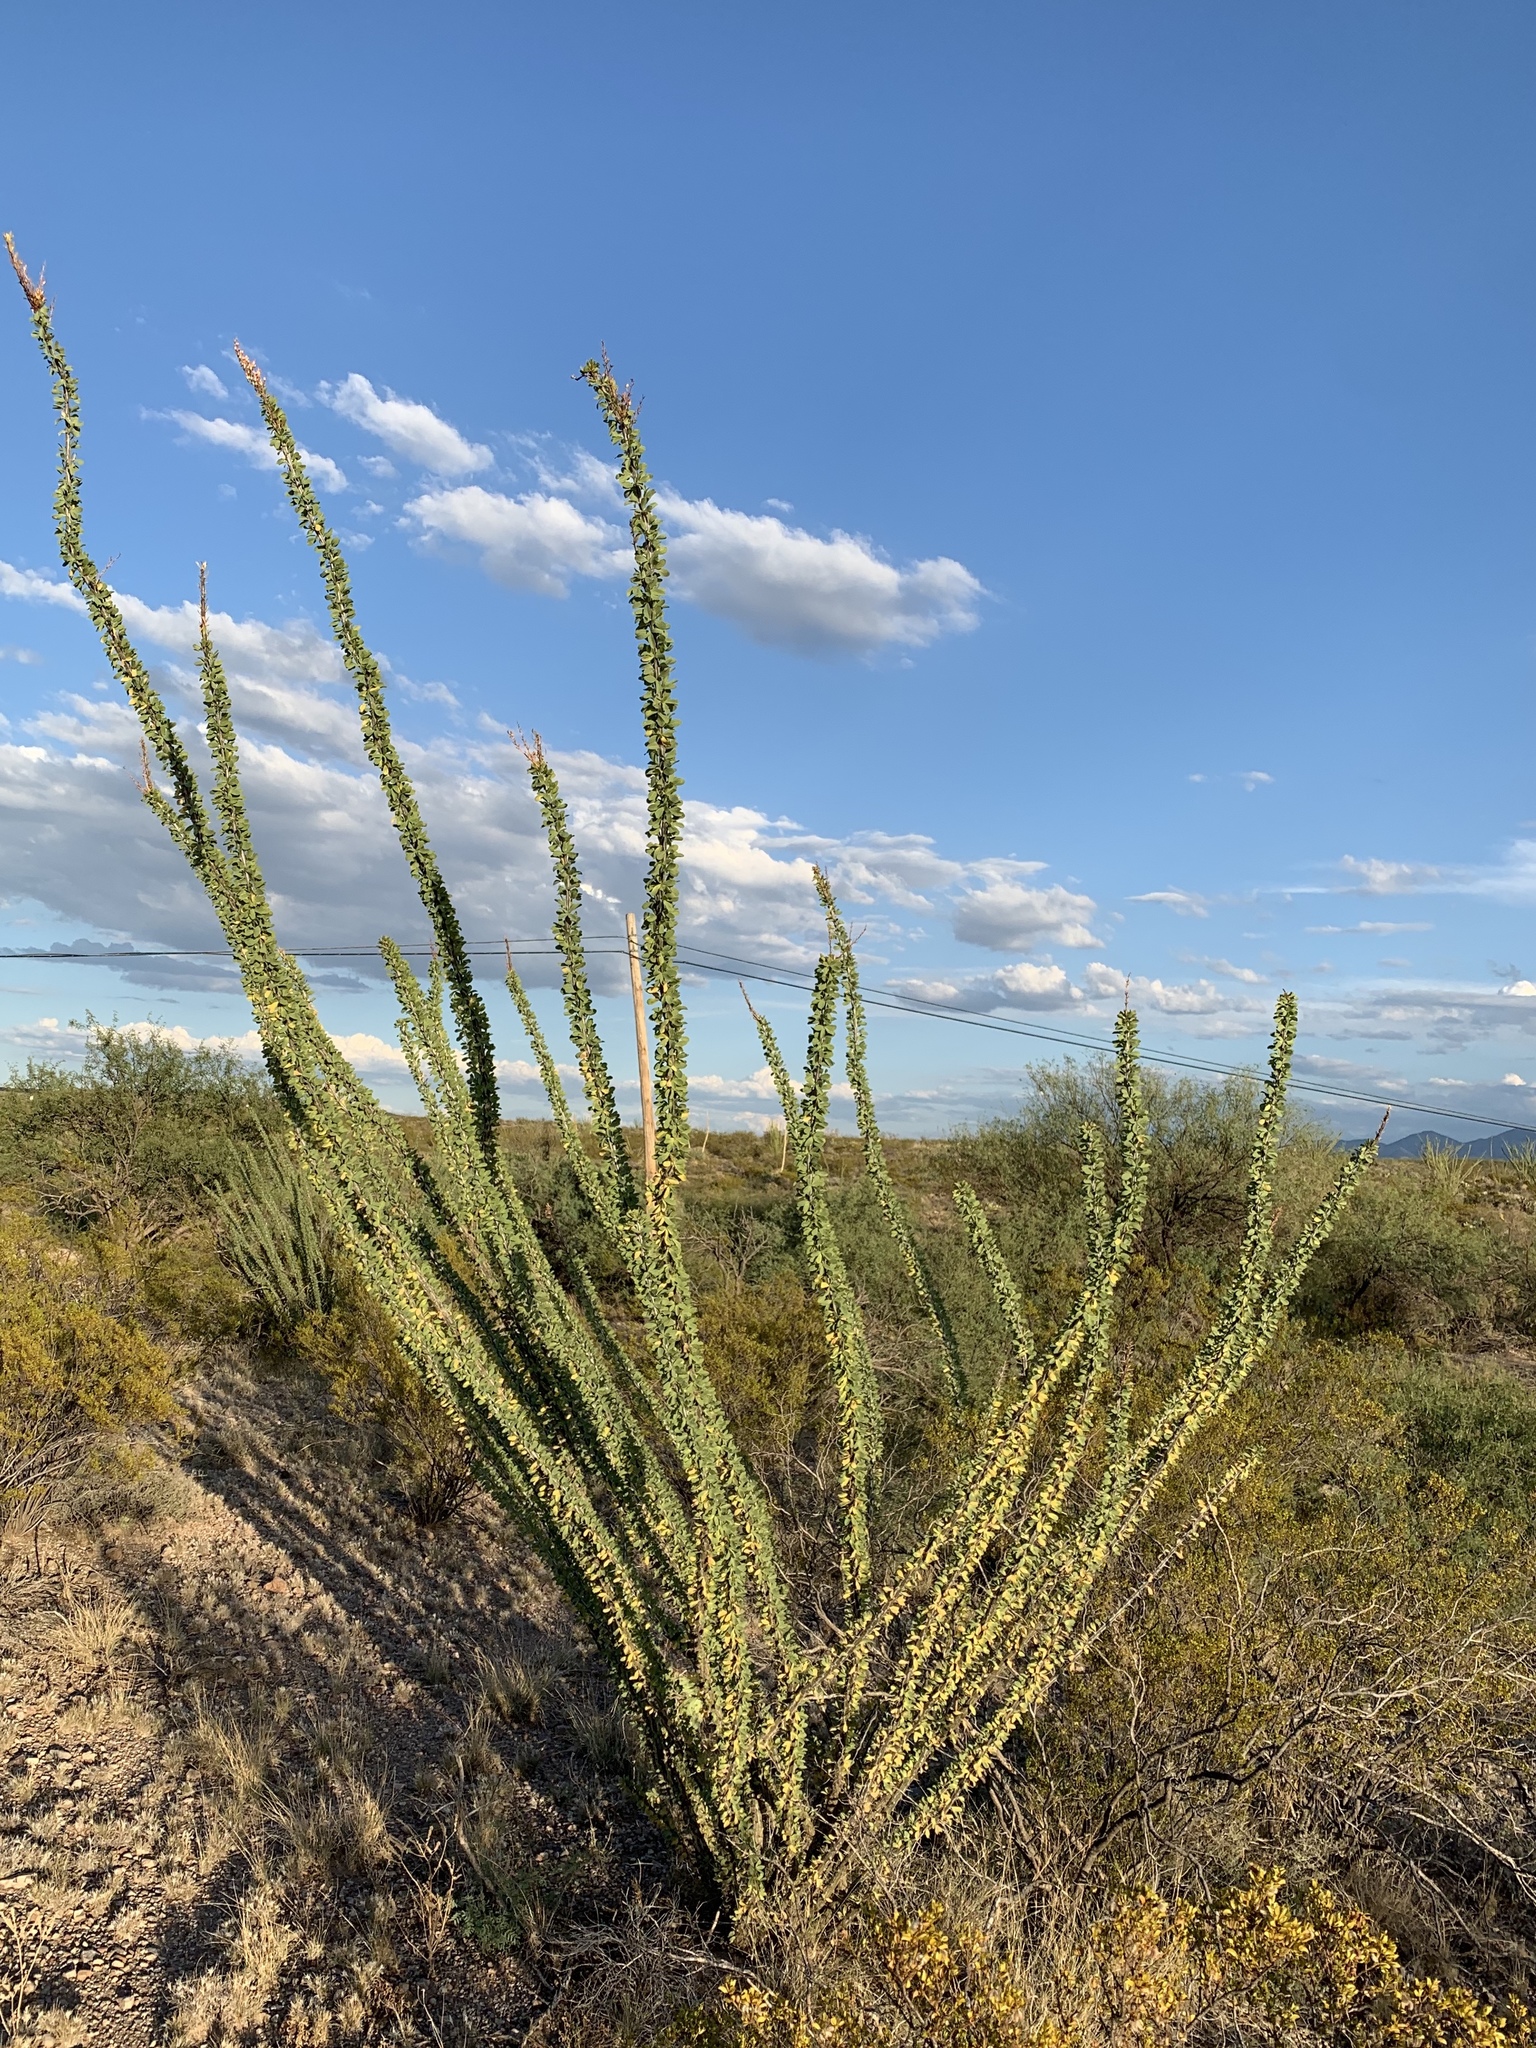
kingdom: Plantae
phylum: Tracheophyta
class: Magnoliopsida
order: Ericales
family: Fouquieriaceae
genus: Fouquieria
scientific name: Fouquieria splendens
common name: Vine-cactus
